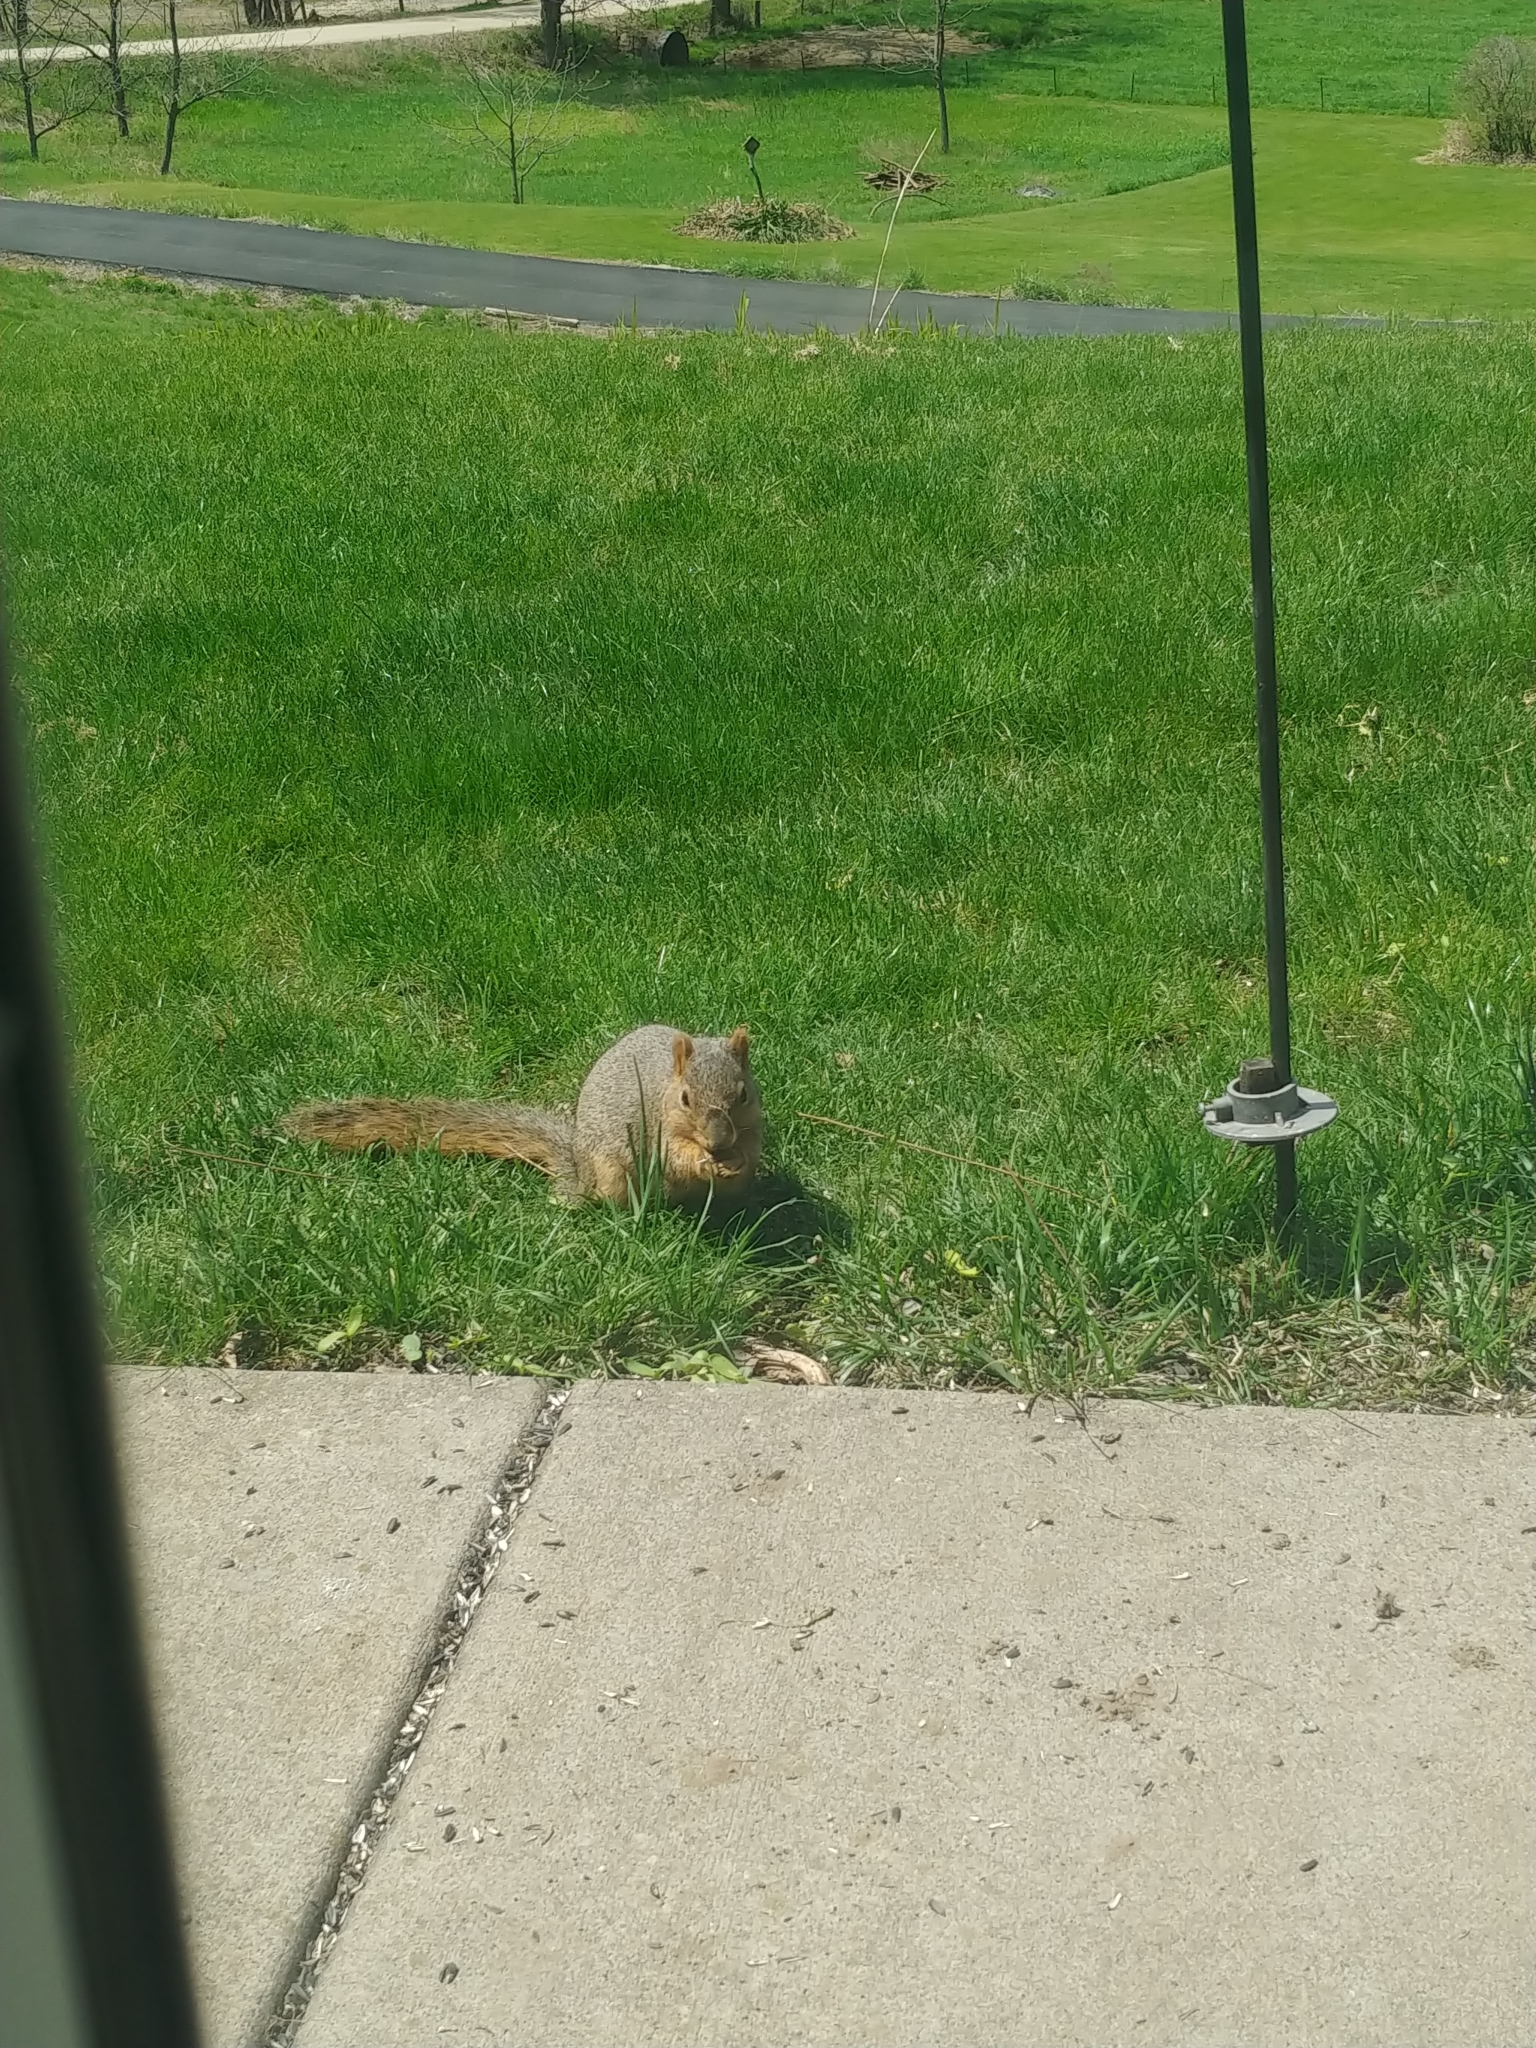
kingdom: Animalia
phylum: Chordata
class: Mammalia
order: Rodentia
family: Sciuridae
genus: Sciurus
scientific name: Sciurus niger
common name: Fox squirrel
